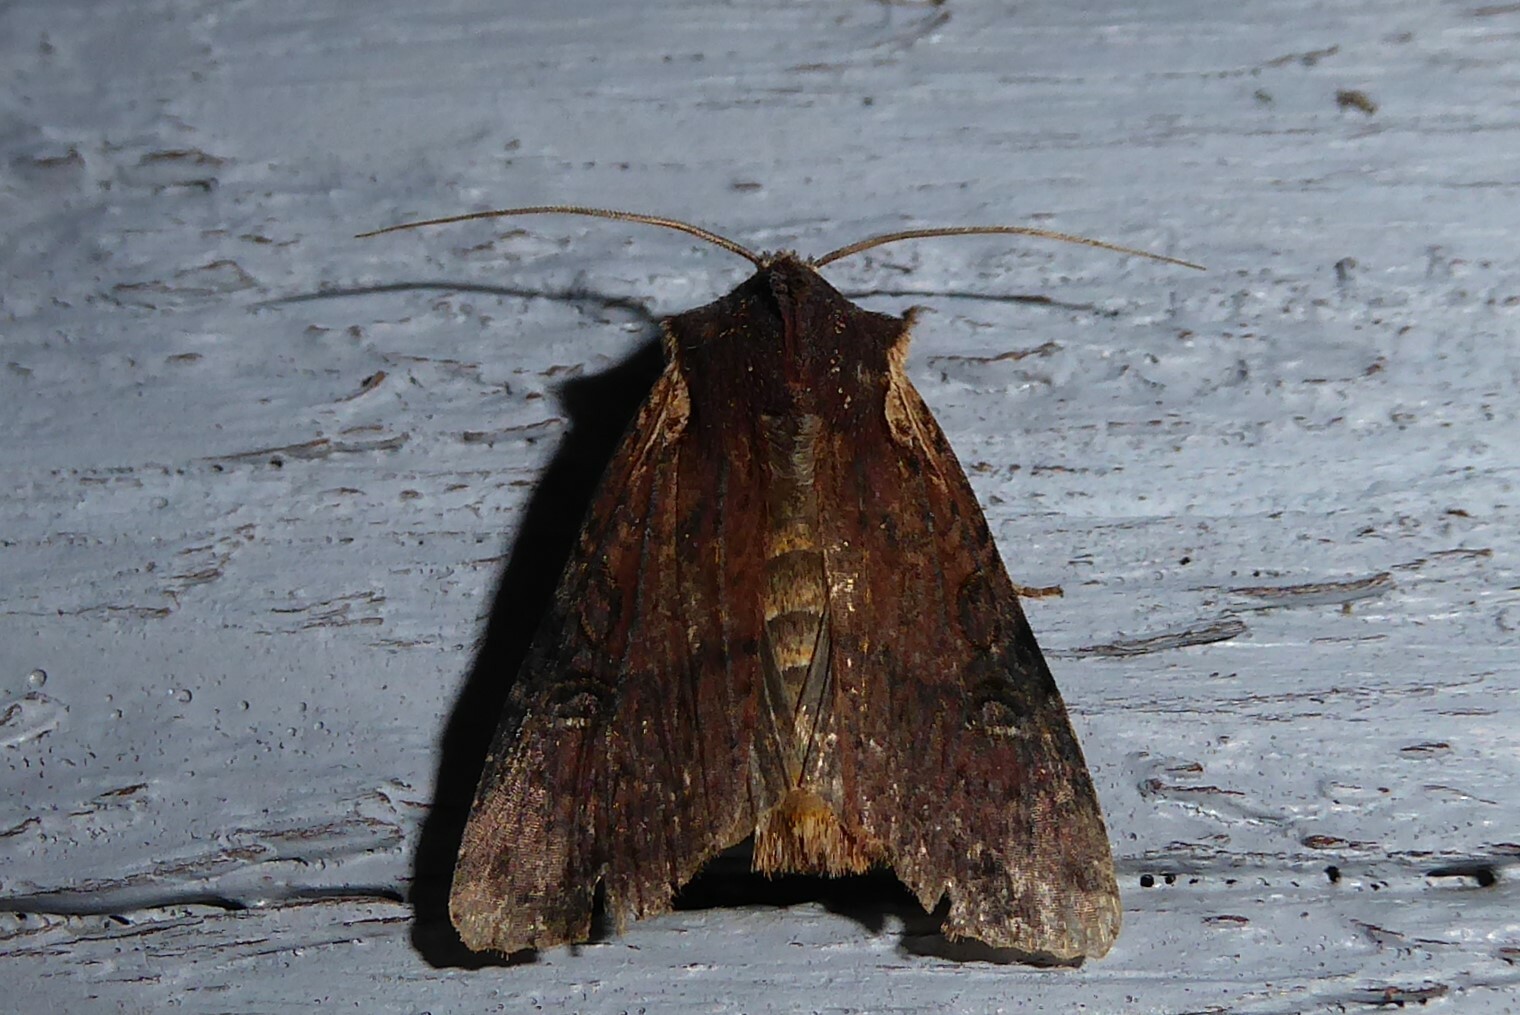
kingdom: Animalia
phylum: Arthropoda
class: Insecta
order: Lepidoptera
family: Noctuidae
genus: Ichneutica
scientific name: Ichneutica omoplaca
